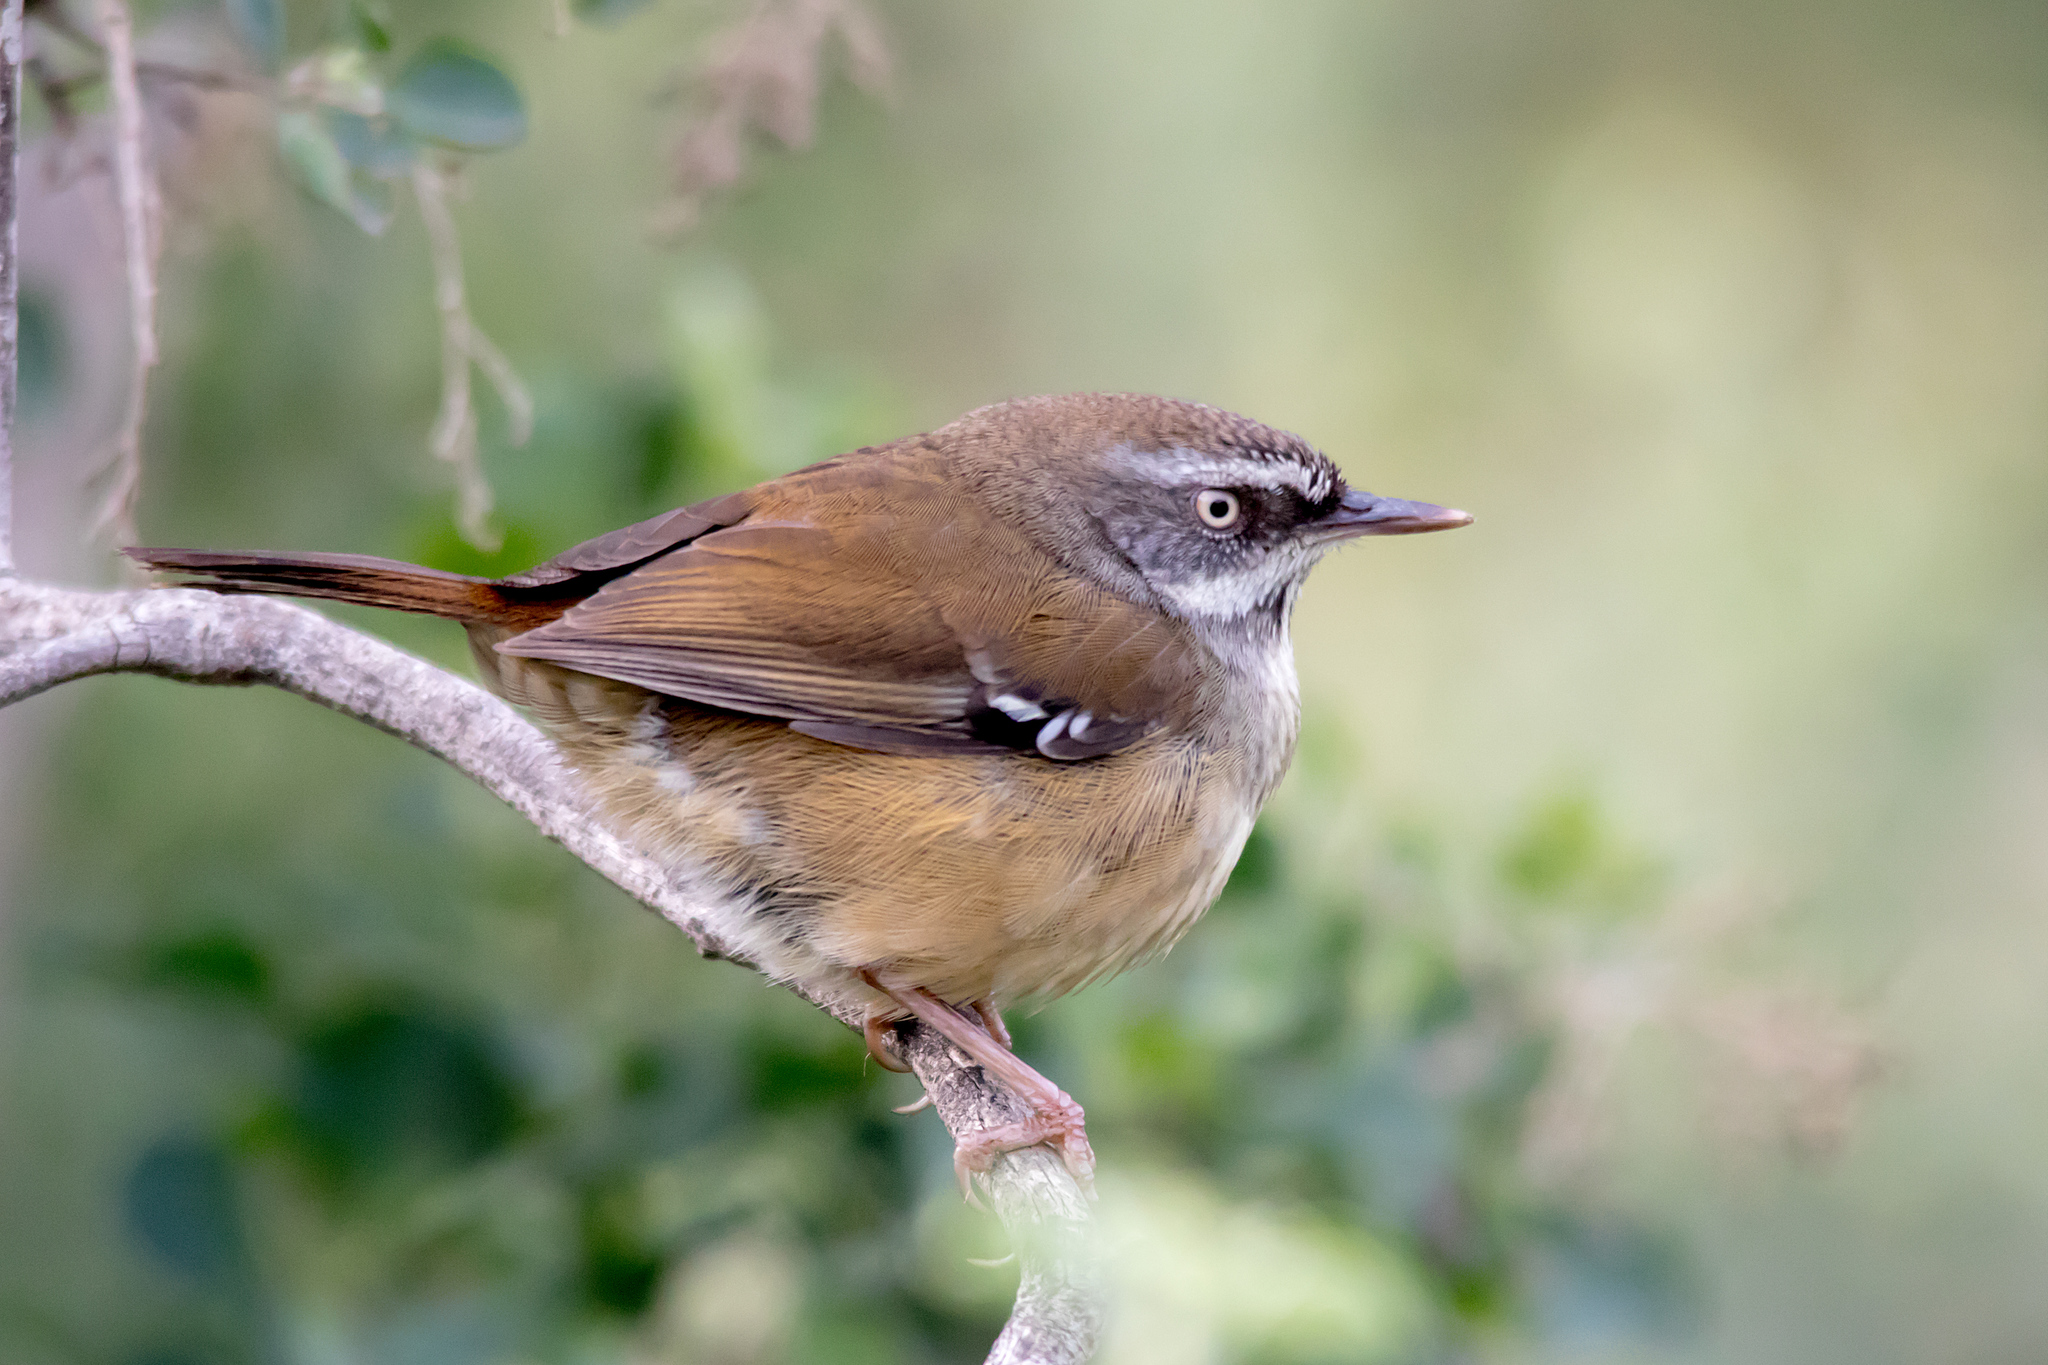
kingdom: Animalia
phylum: Chordata
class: Aves
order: Passeriformes
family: Acanthizidae
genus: Sericornis
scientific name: Sericornis frontalis
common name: White-browed scrubwren
